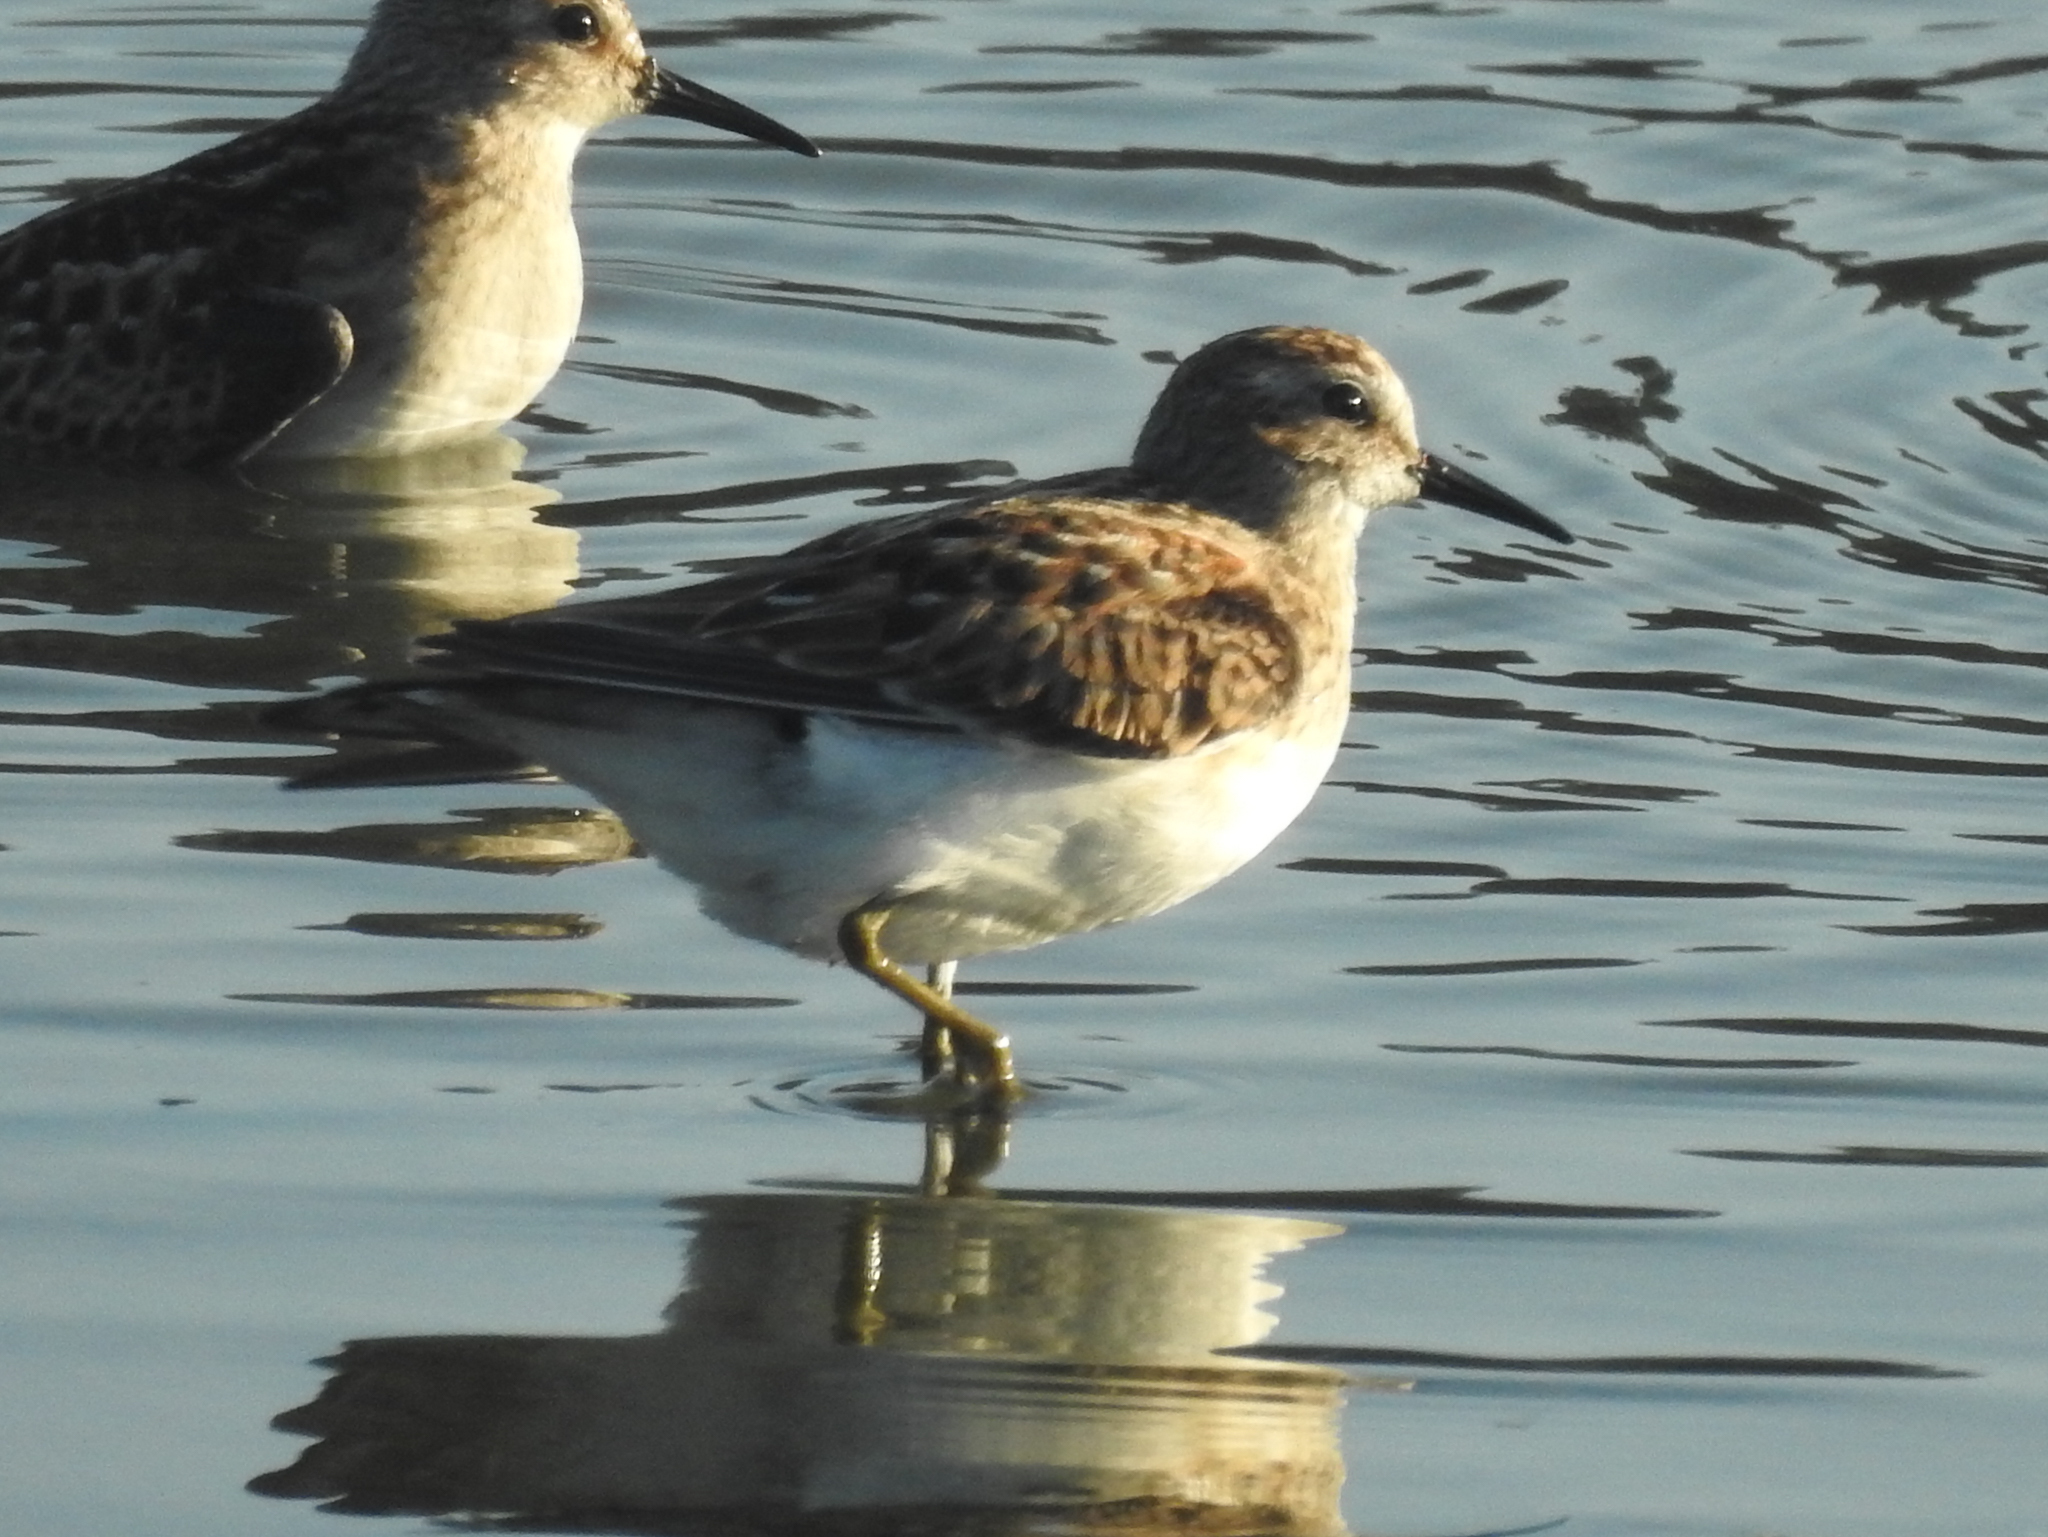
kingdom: Animalia
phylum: Chordata
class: Aves
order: Charadriiformes
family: Scolopacidae
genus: Calidris
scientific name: Calidris minutilla
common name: Least sandpiper
